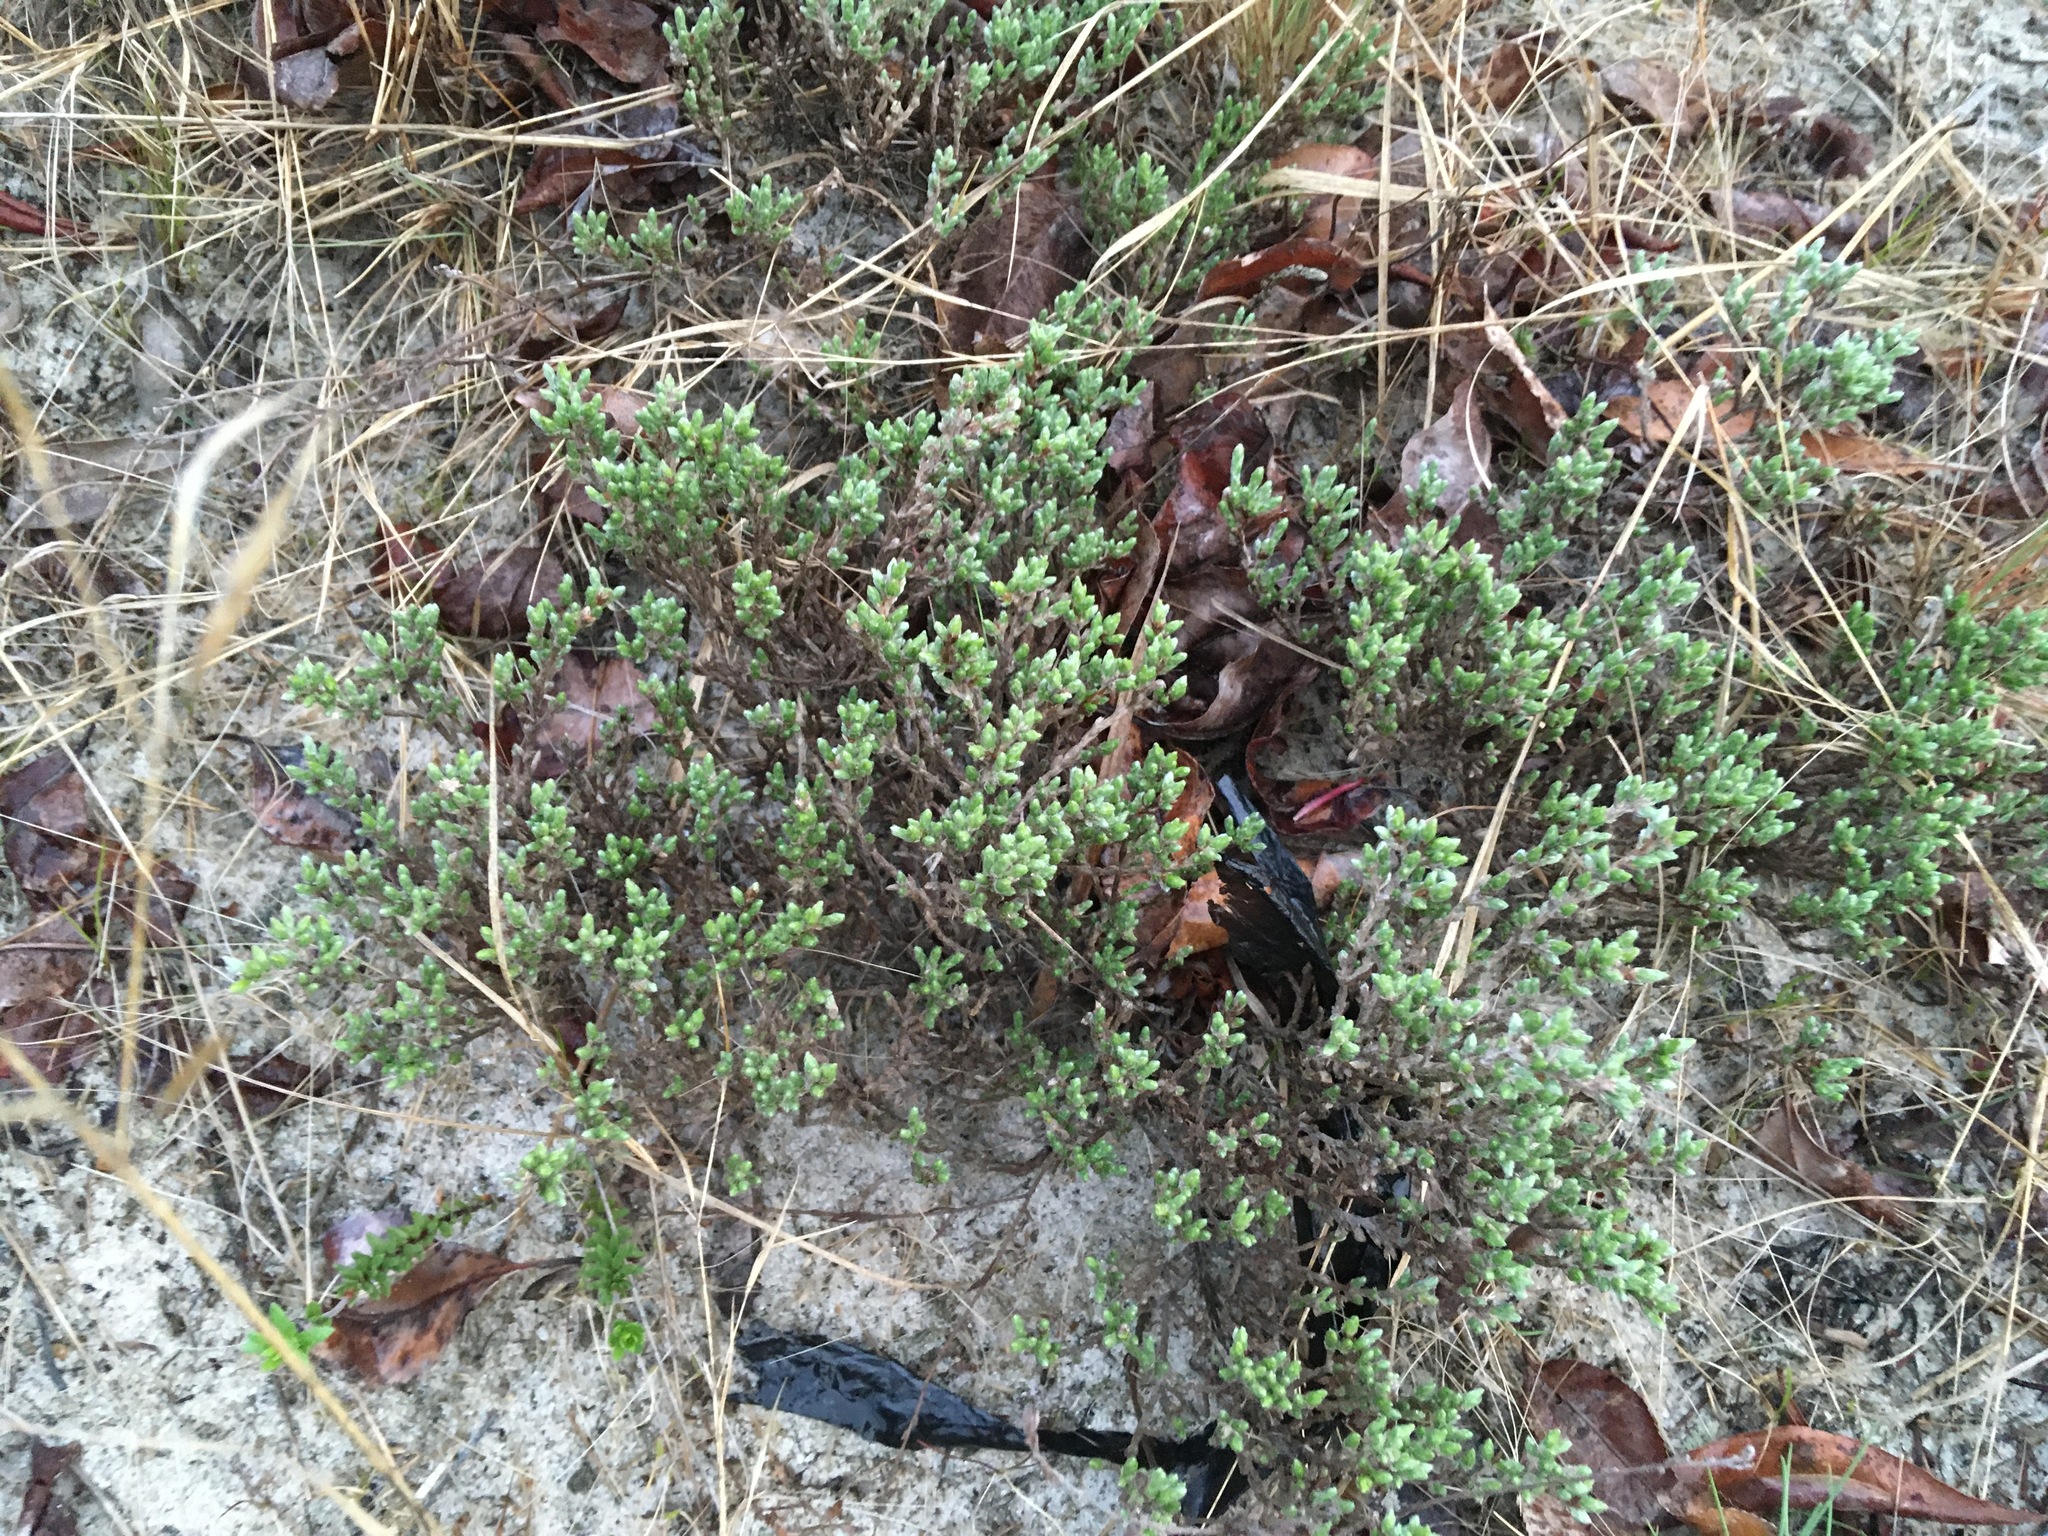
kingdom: Plantae
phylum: Tracheophyta
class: Magnoliopsida
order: Malvales
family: Cistaceae
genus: Hudsonia
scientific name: Hudsonia tomentosa
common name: Beach-heath
